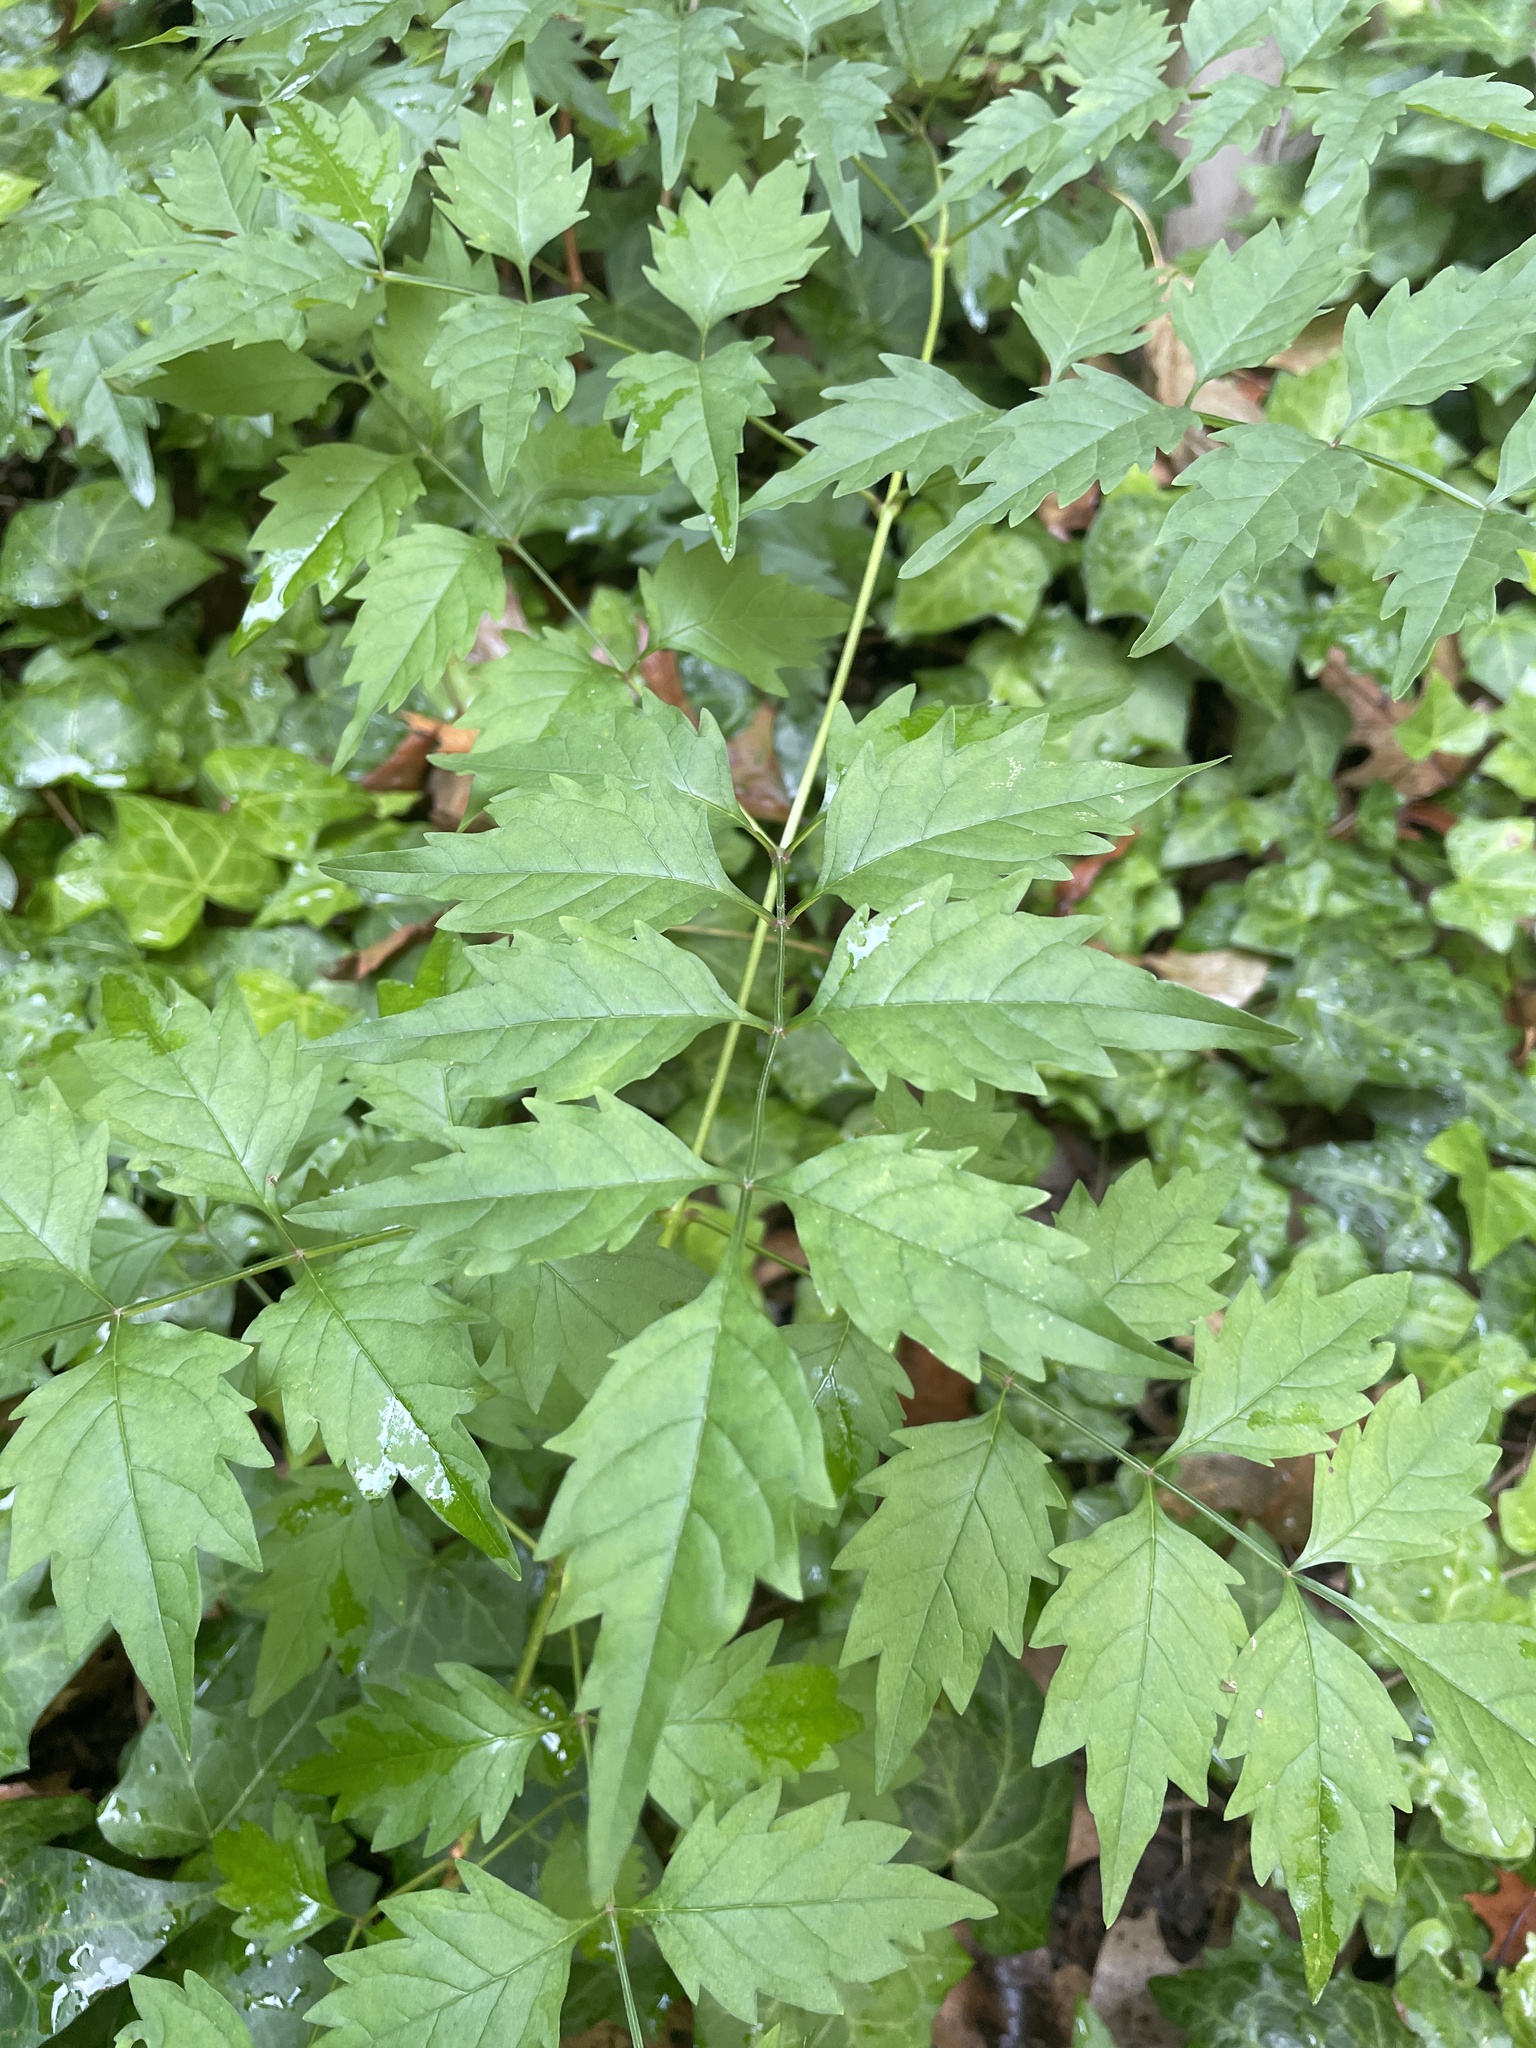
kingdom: Plantae
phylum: Tracheophyta
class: Magnoliopsida
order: Lamiales
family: Bignoniaceae
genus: Campsis
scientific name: Campsis radicans
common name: Trumpet-creeper
